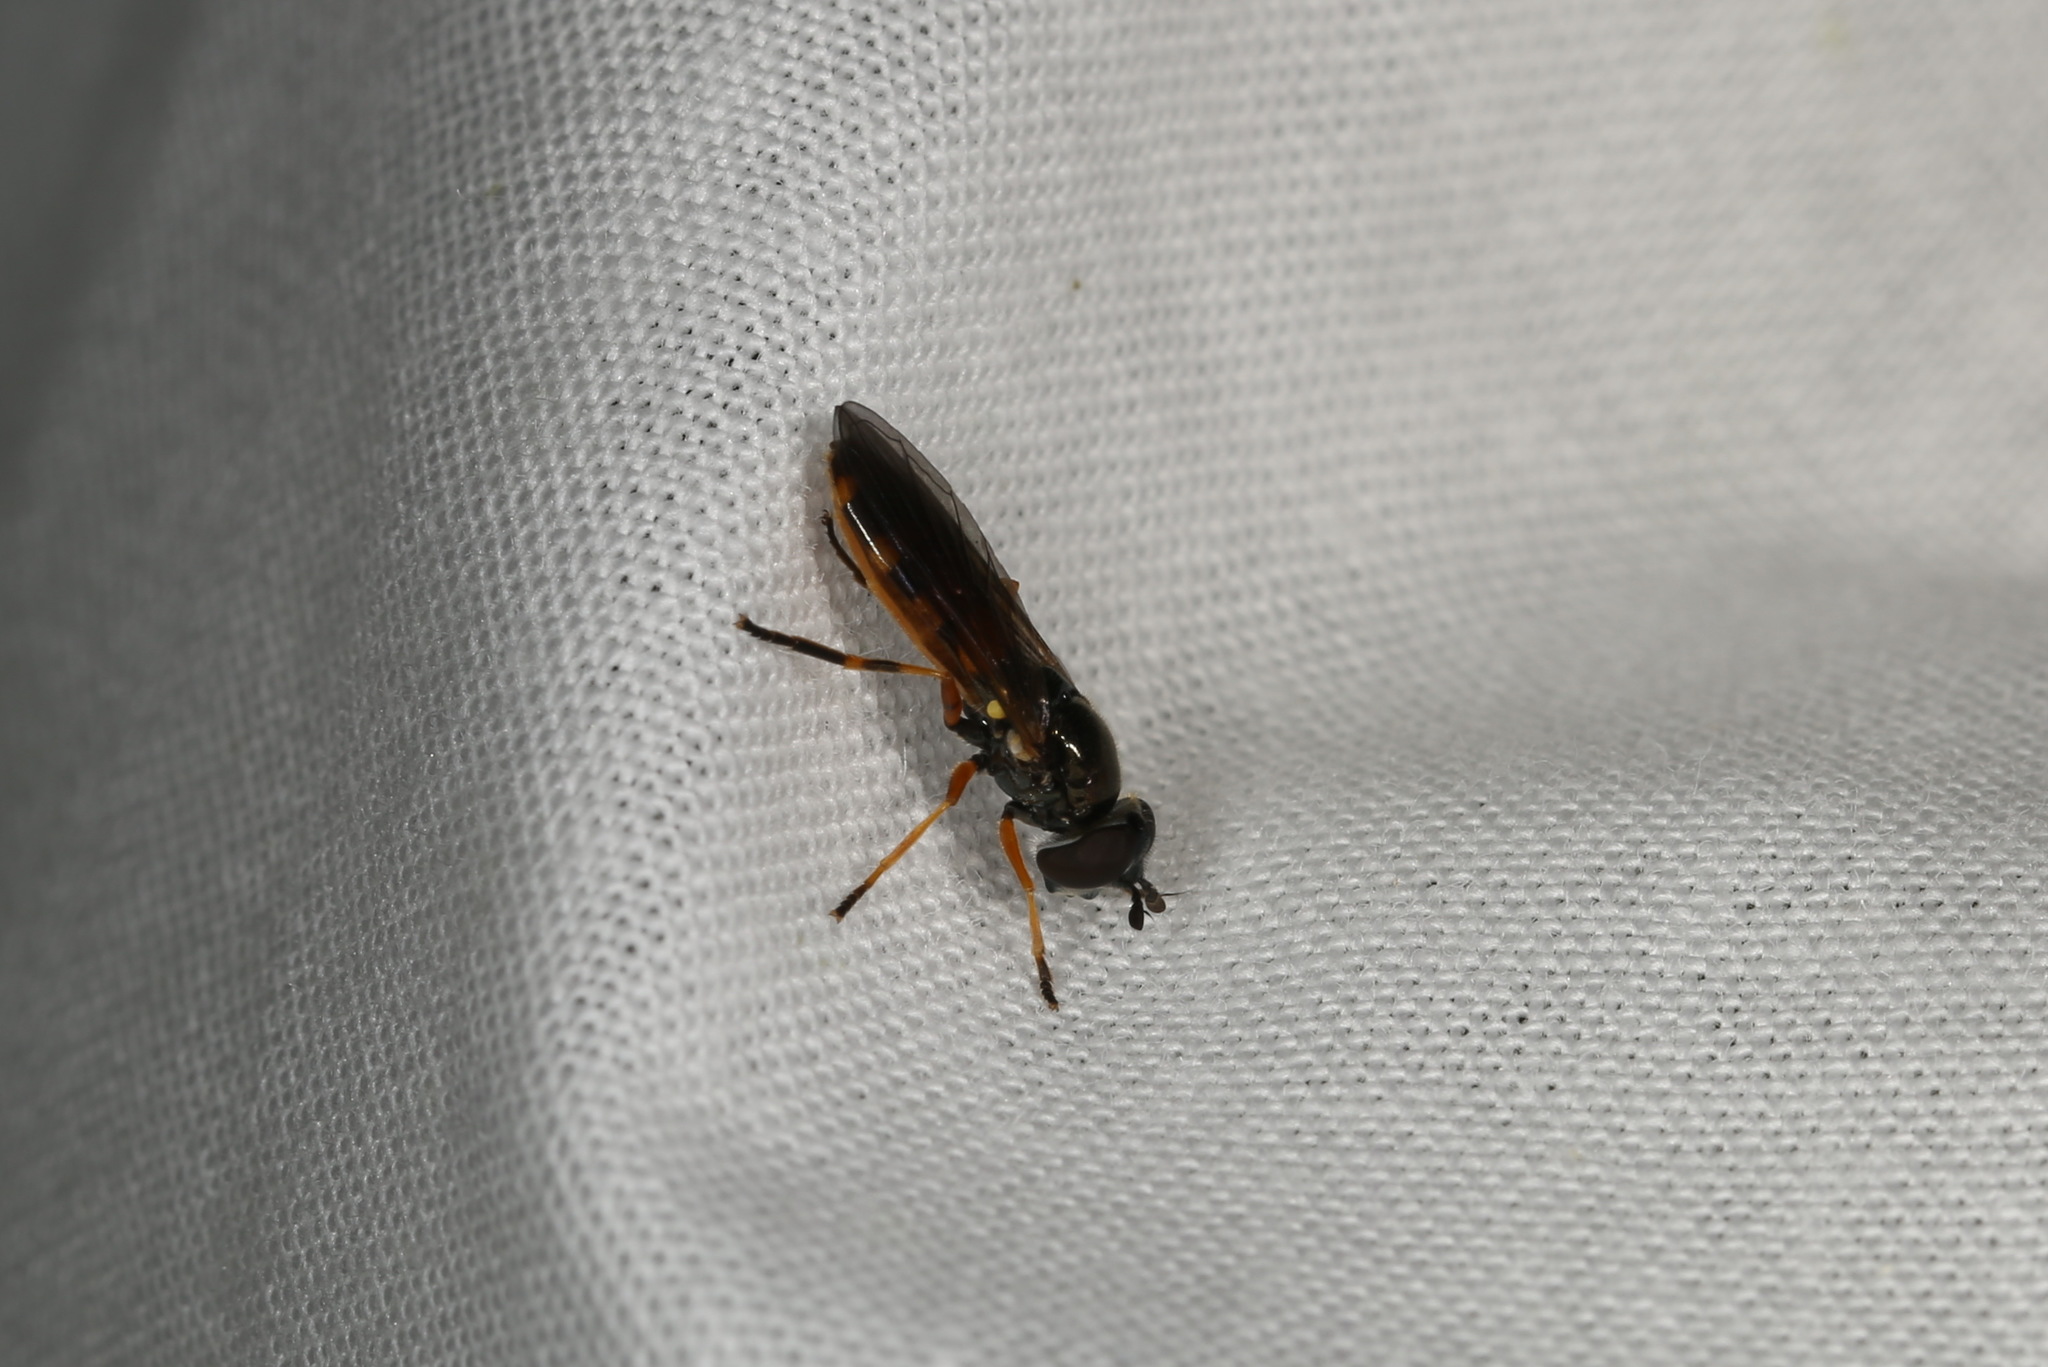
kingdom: Animalia
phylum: Arthropoda
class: Insecta
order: Diptera
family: Syrphidae
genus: Pyrophaena
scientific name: Pyrophaena granditarsa
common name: Hornhand sedgesitter
